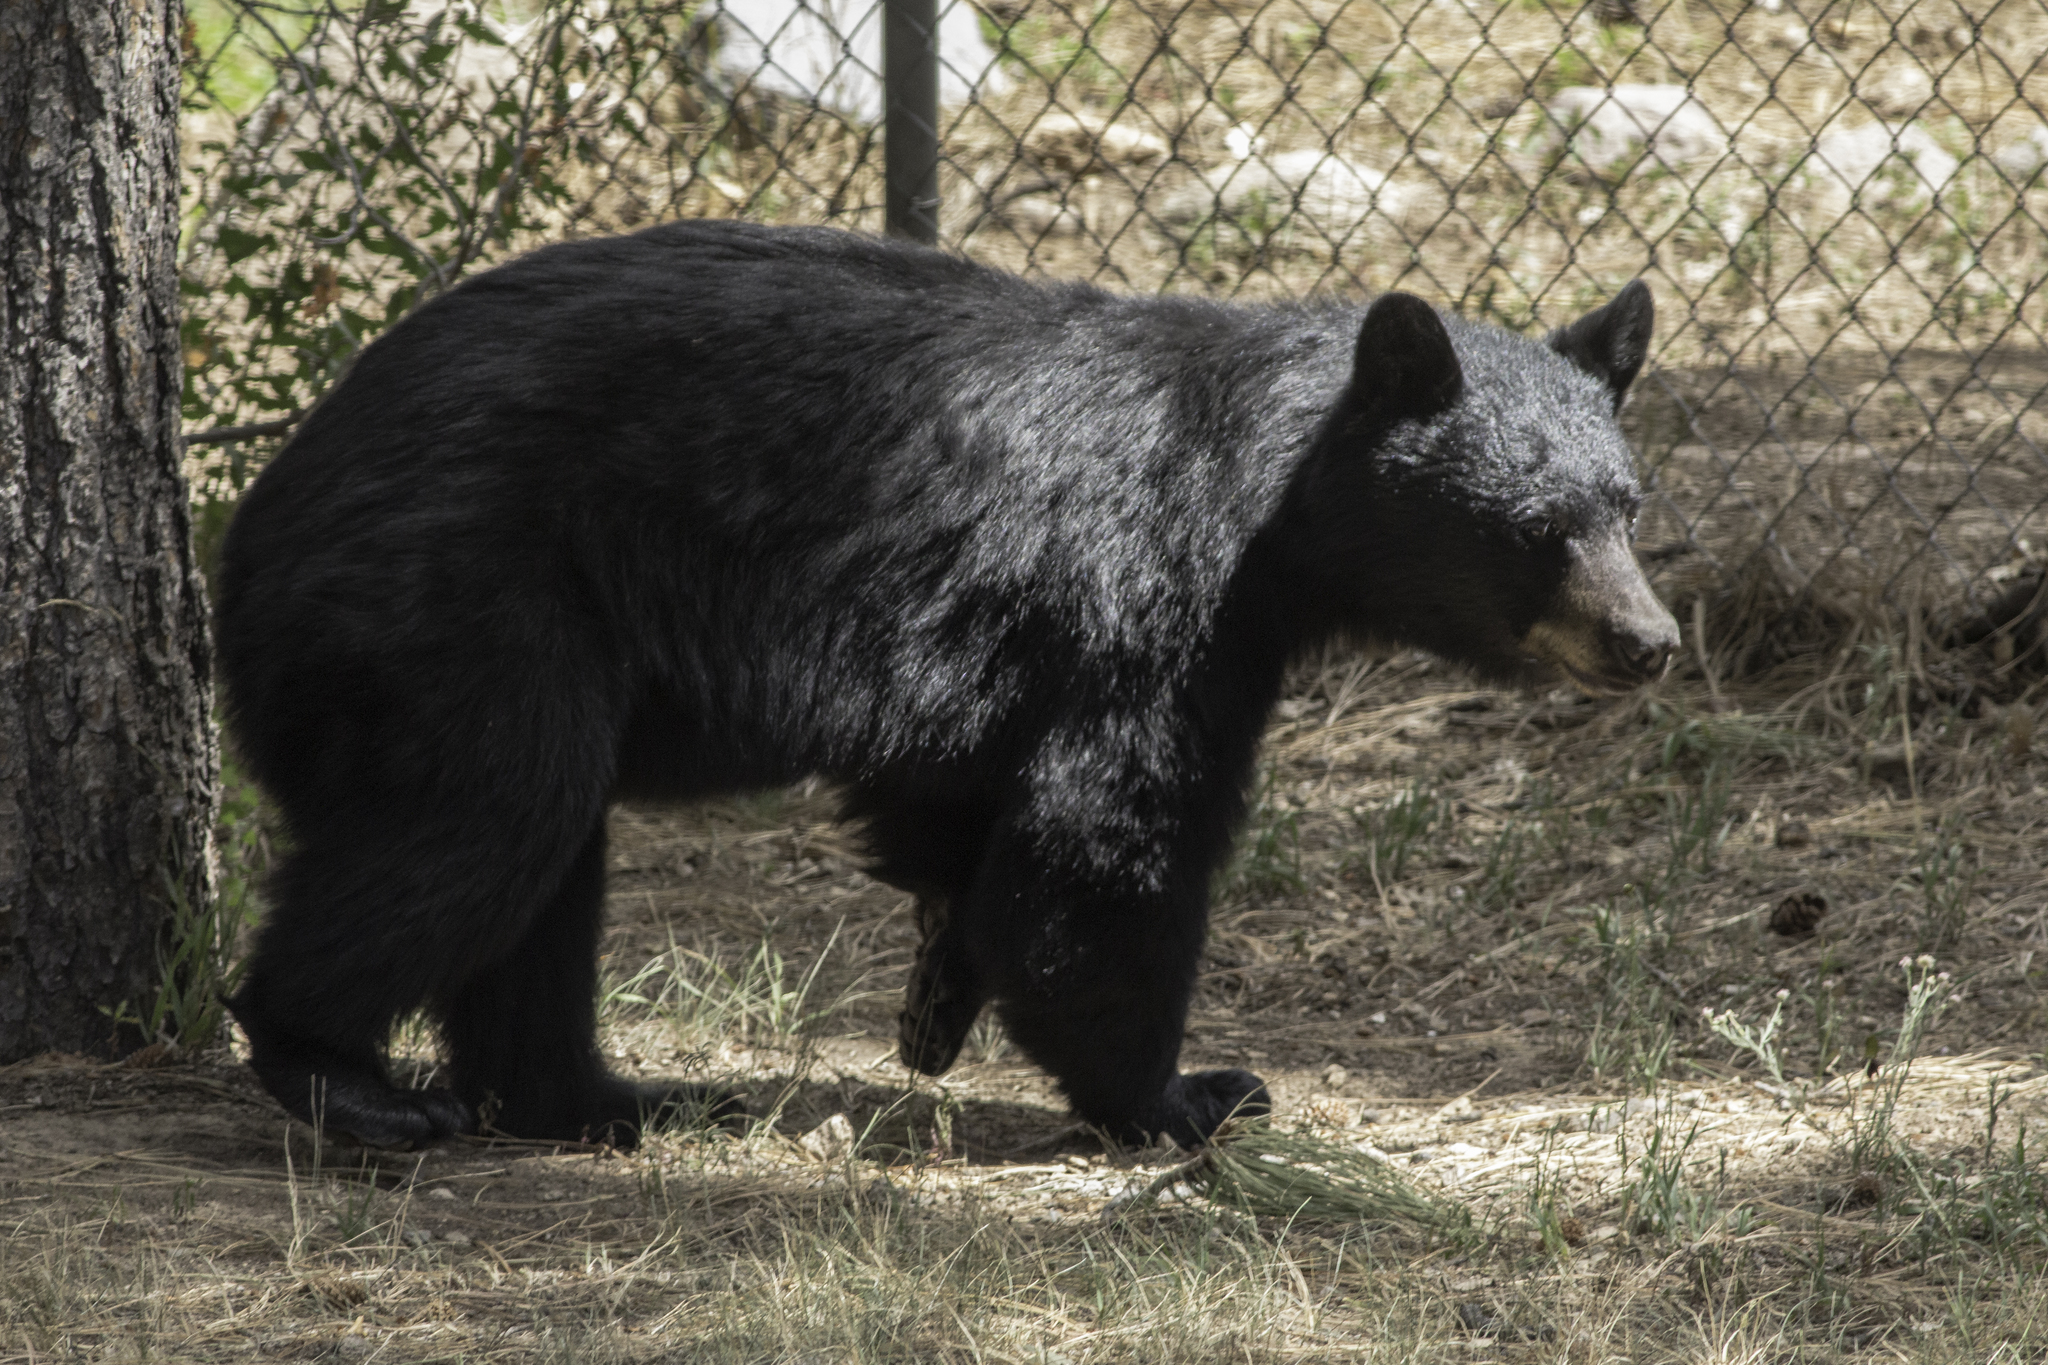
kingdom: Animalia
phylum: Chordata
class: Mammalia
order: Carnivora
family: Ursidae
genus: Ursus
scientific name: Ursus americanus
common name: American black bear
